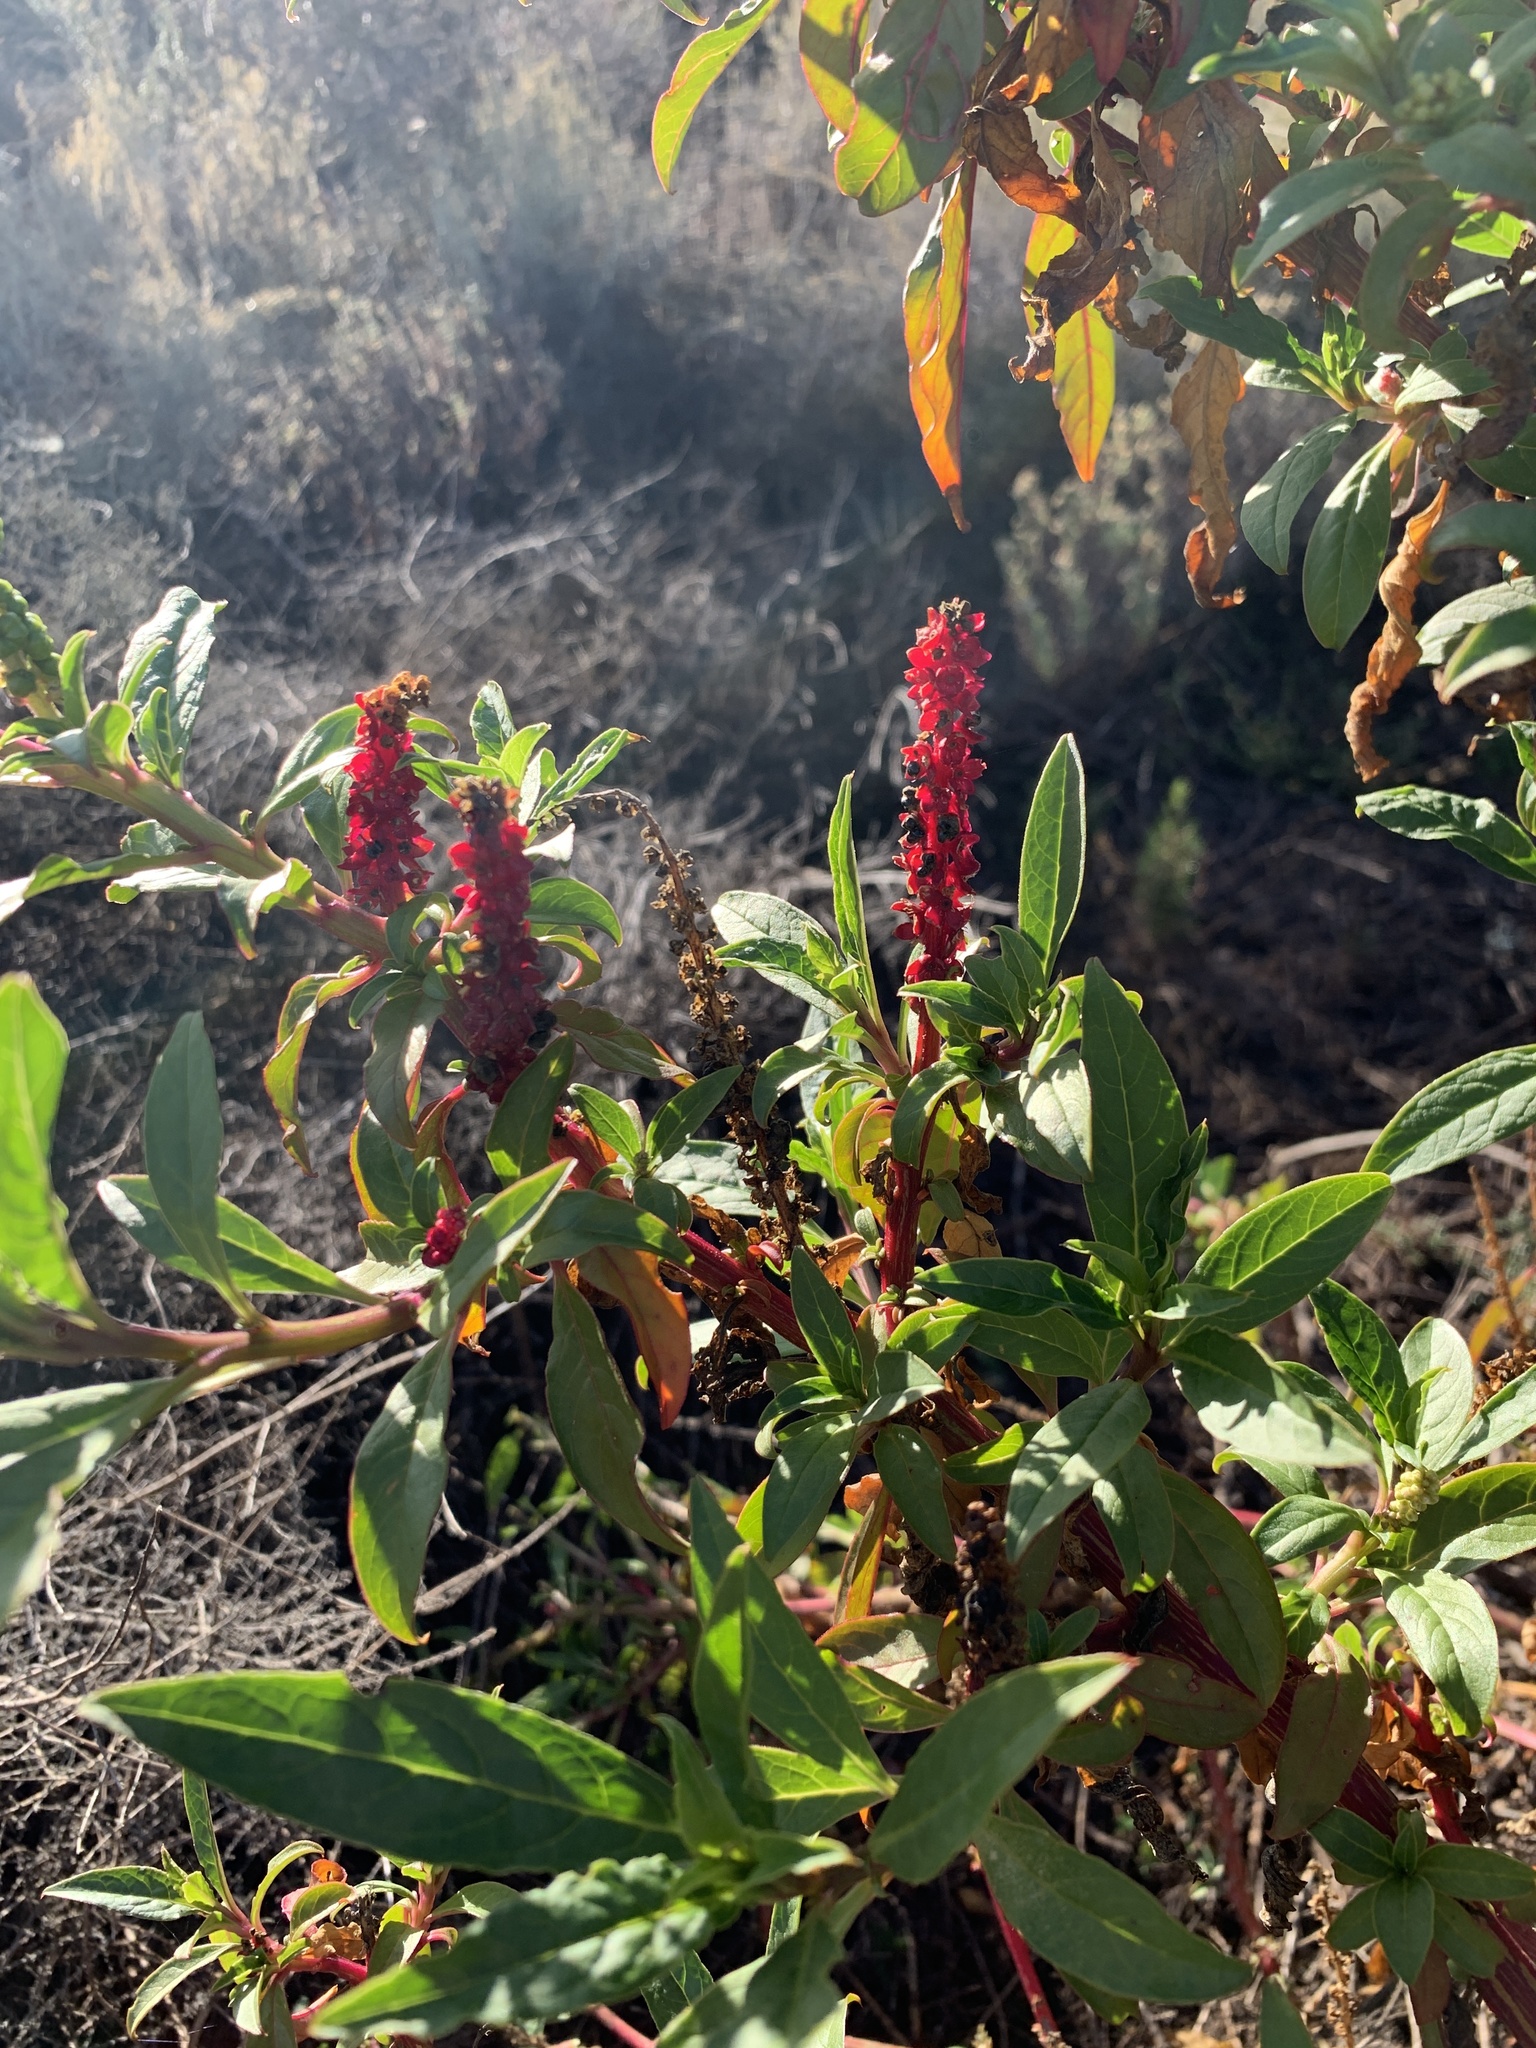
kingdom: Plantae
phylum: Tracheophyta
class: Magnoliopsida
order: Caryophyllales
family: Phytolaccaceae
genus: Phytolacca
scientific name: Phytolacca icosandra
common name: Button pokeweed
